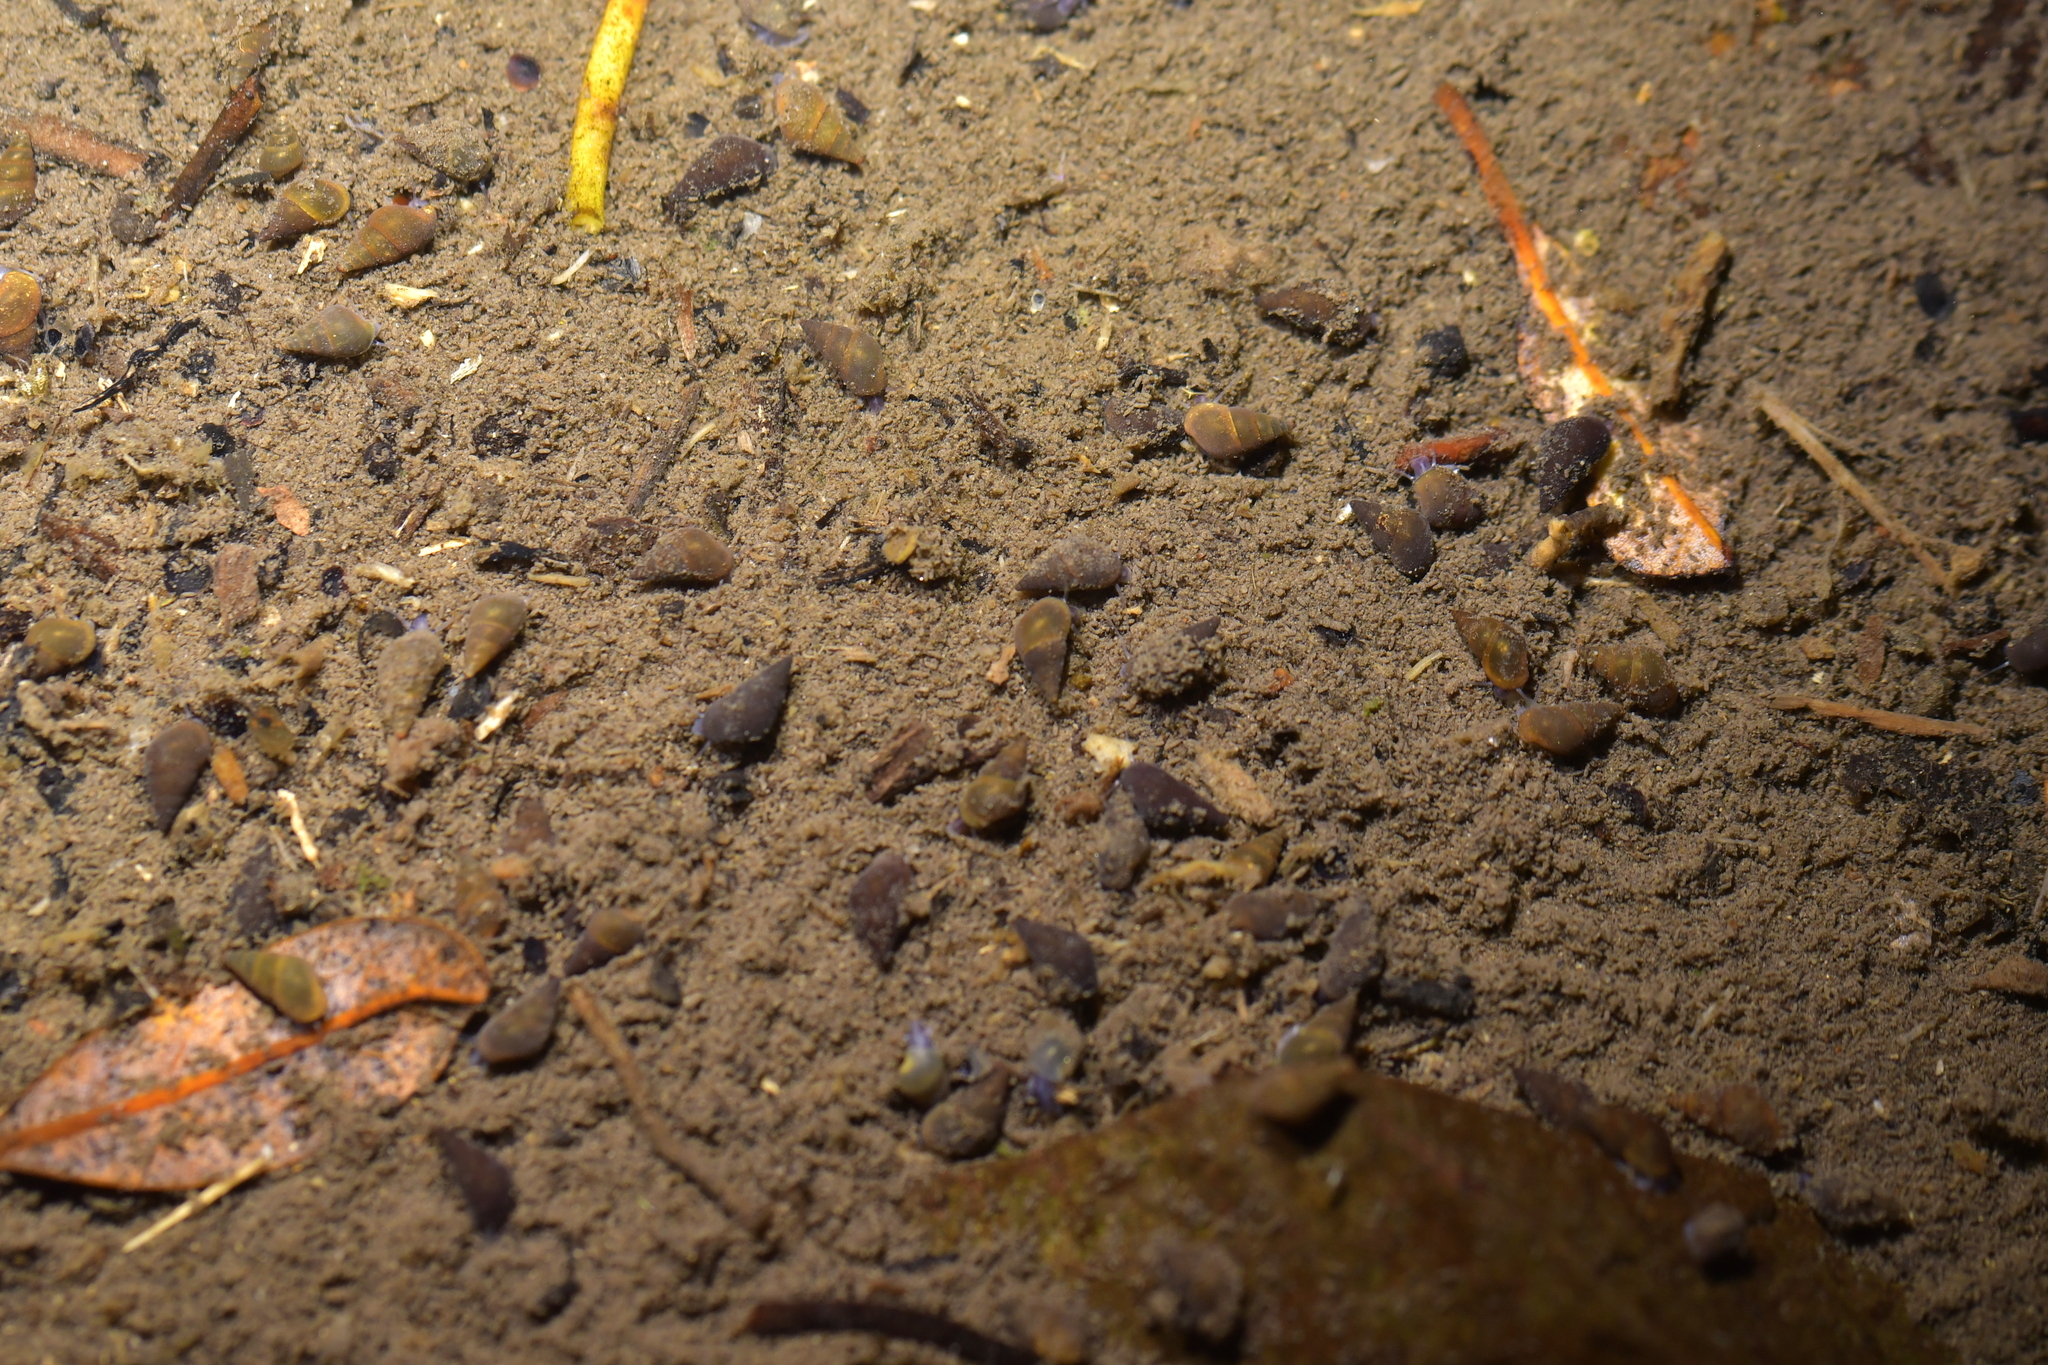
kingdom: Animalia
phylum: Mollusca
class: Gastropoda
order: Littorinimorpha
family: Tateidae
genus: Potamopyrgus
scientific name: Potamopyrgus antipodarum
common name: Jenkins' spire snail
